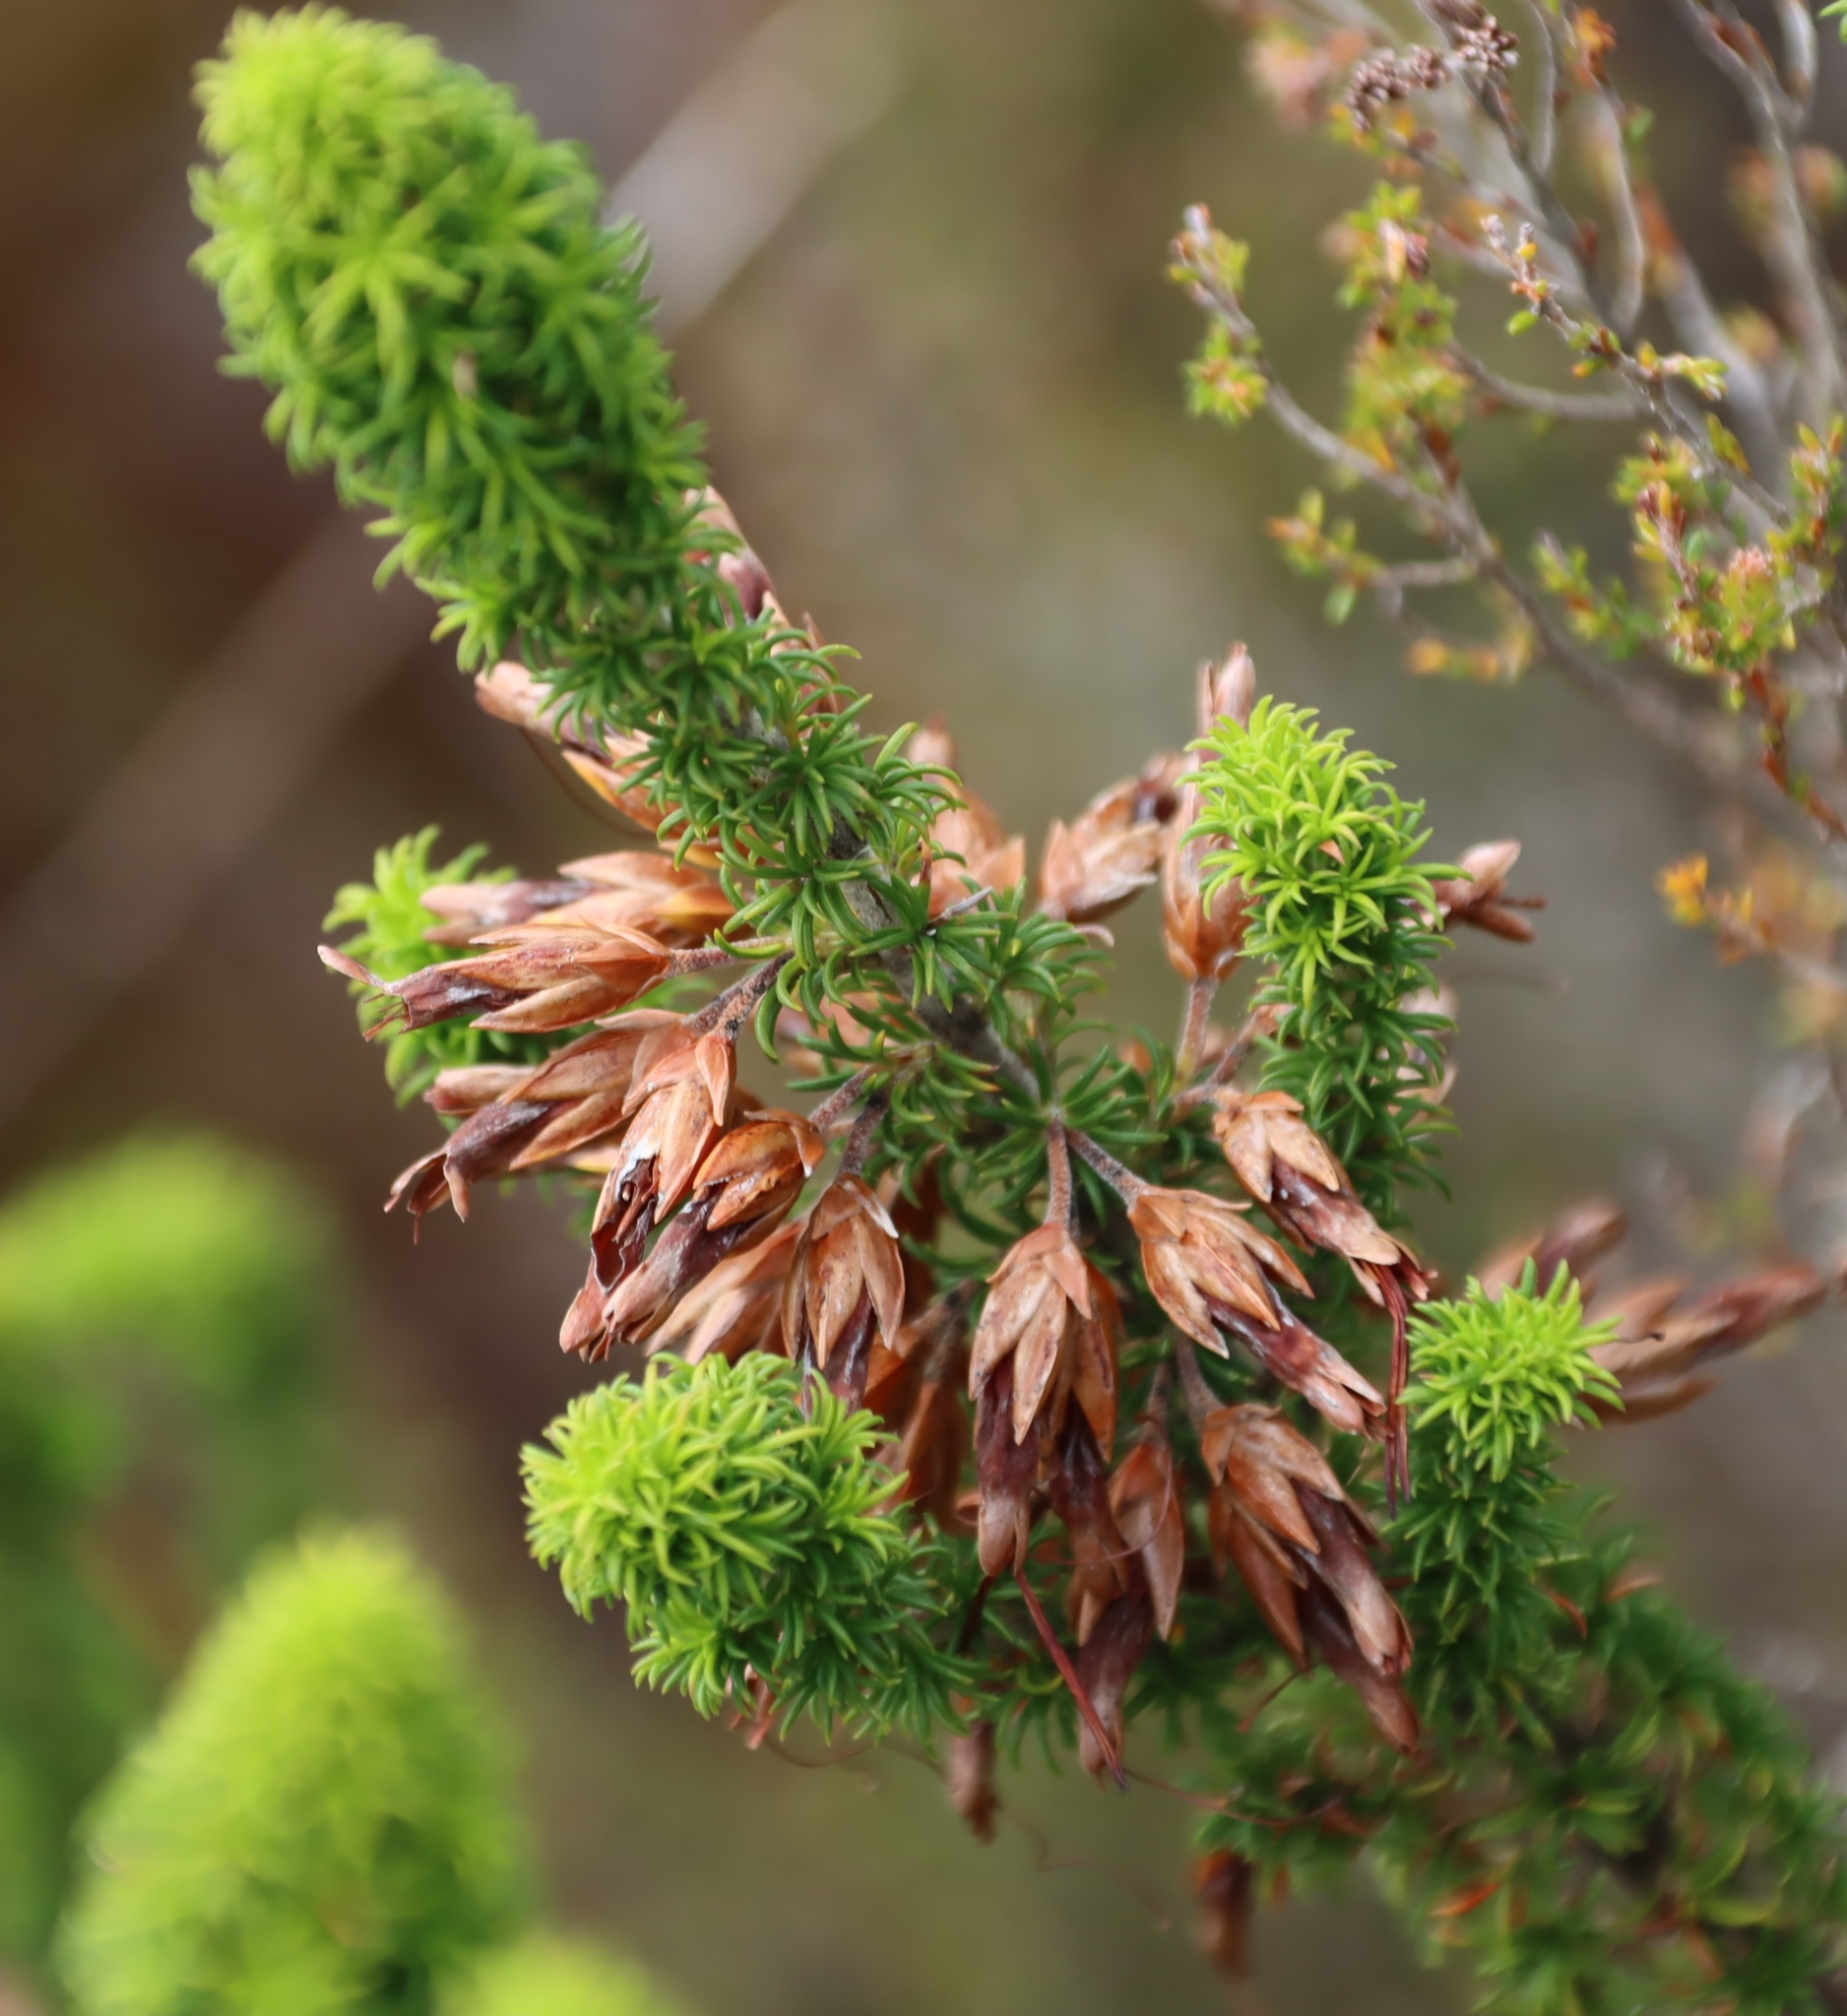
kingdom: Plantae
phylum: Tracheophyta
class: Magnoliopsida
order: Ericales
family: Ericaceae
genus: Erica
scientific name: Erica coccinea
